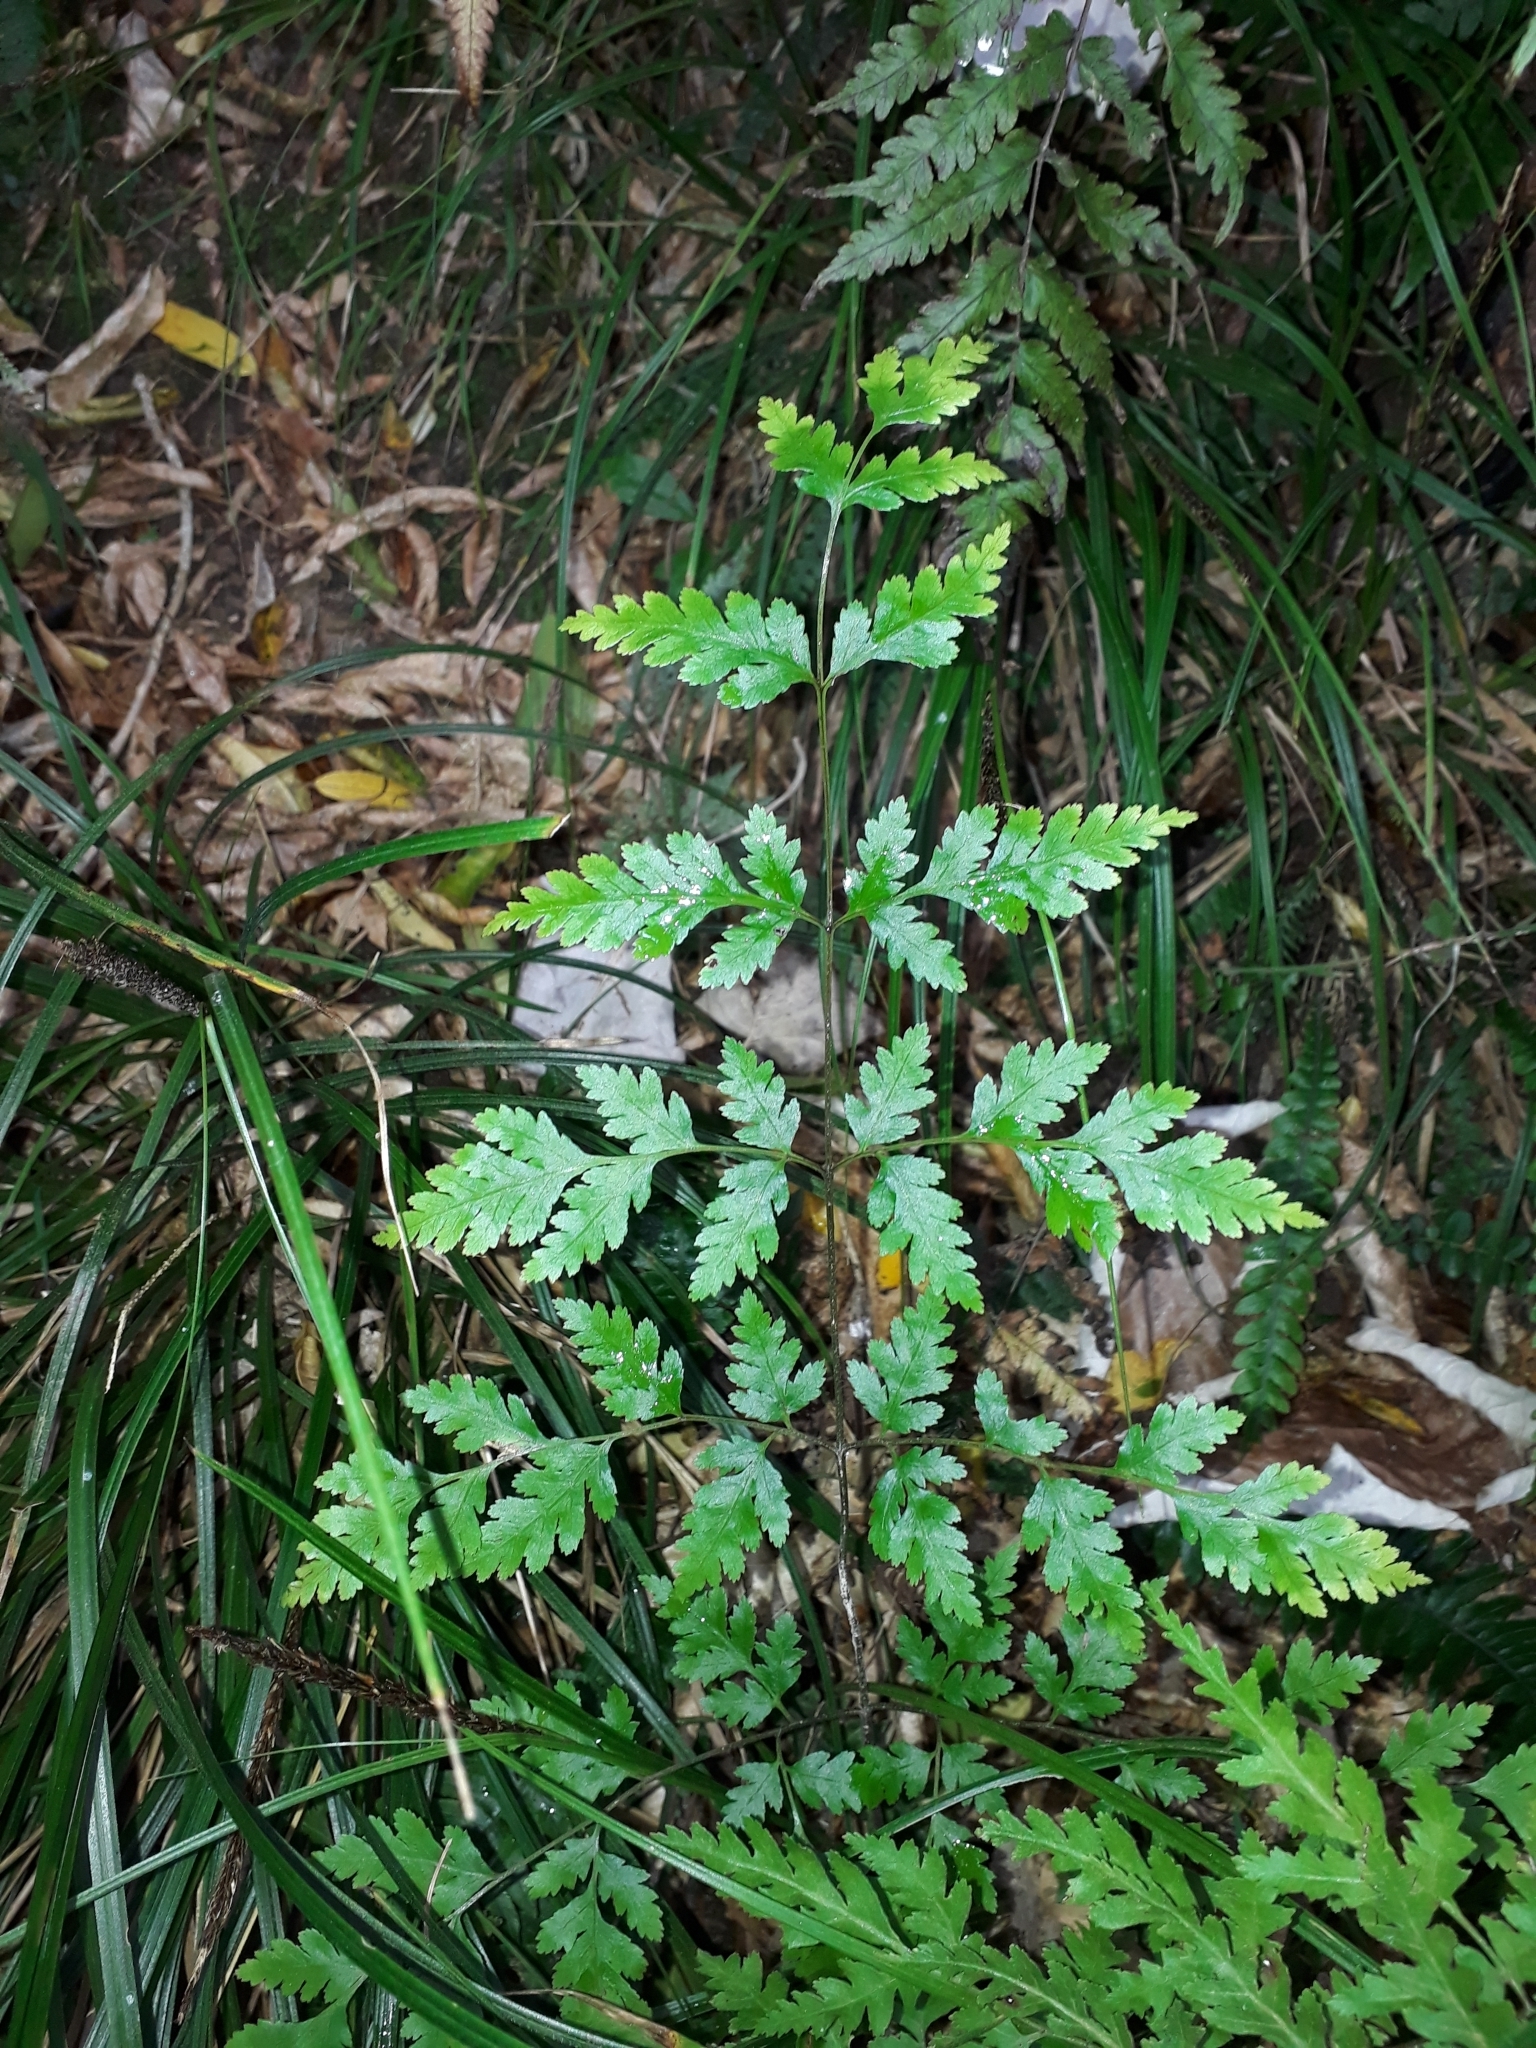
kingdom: Plantae
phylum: Tracheophyta
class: Polypodiopsida
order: Polypodiales
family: Pteridaceae
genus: Pteris
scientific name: Pteris macilenta
